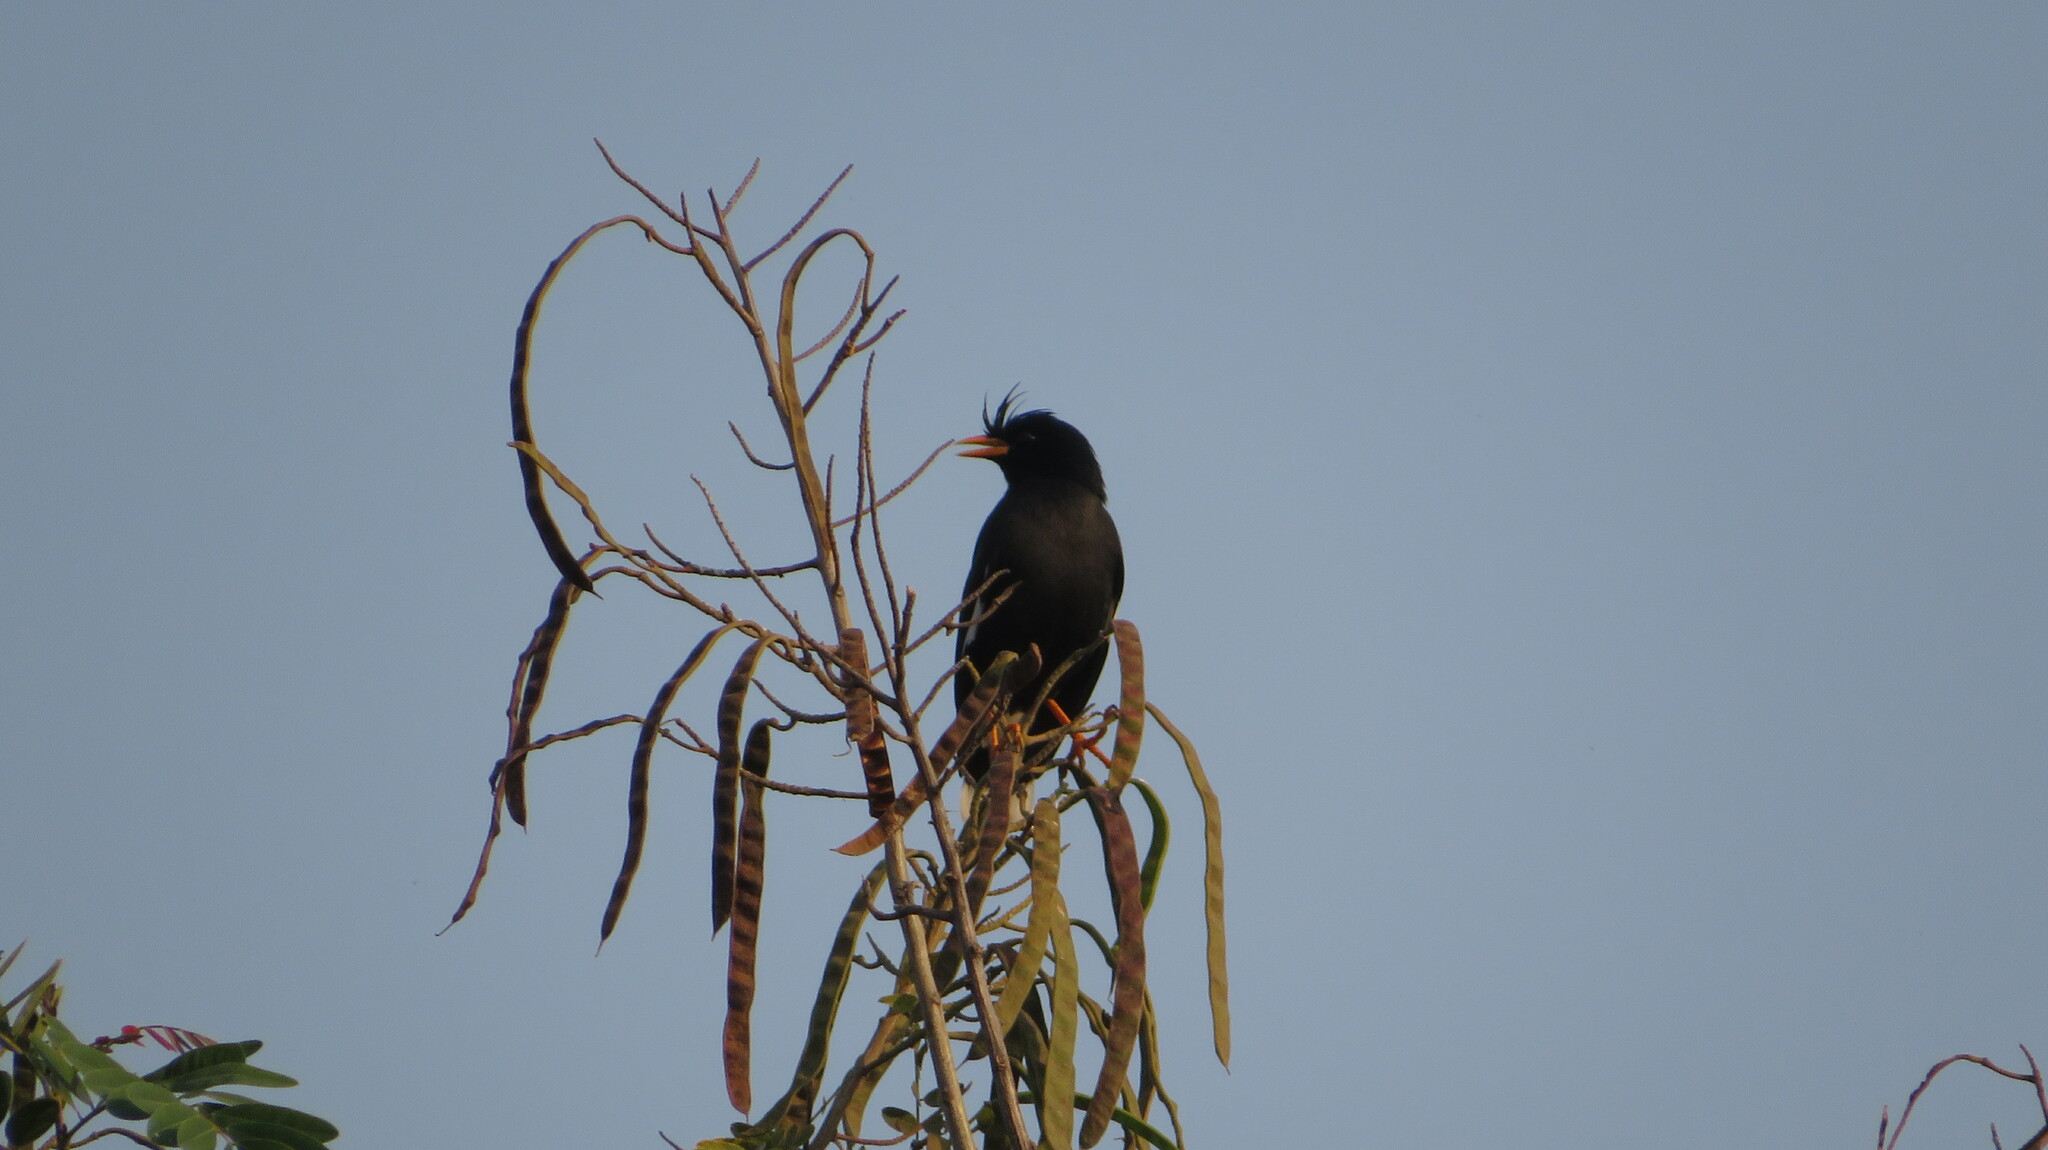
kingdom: Animalia
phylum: Chordata
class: Aves
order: Passeriformes
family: Sturnidae
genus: Acridotheres
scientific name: Acridotheres grandis
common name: Great myna
